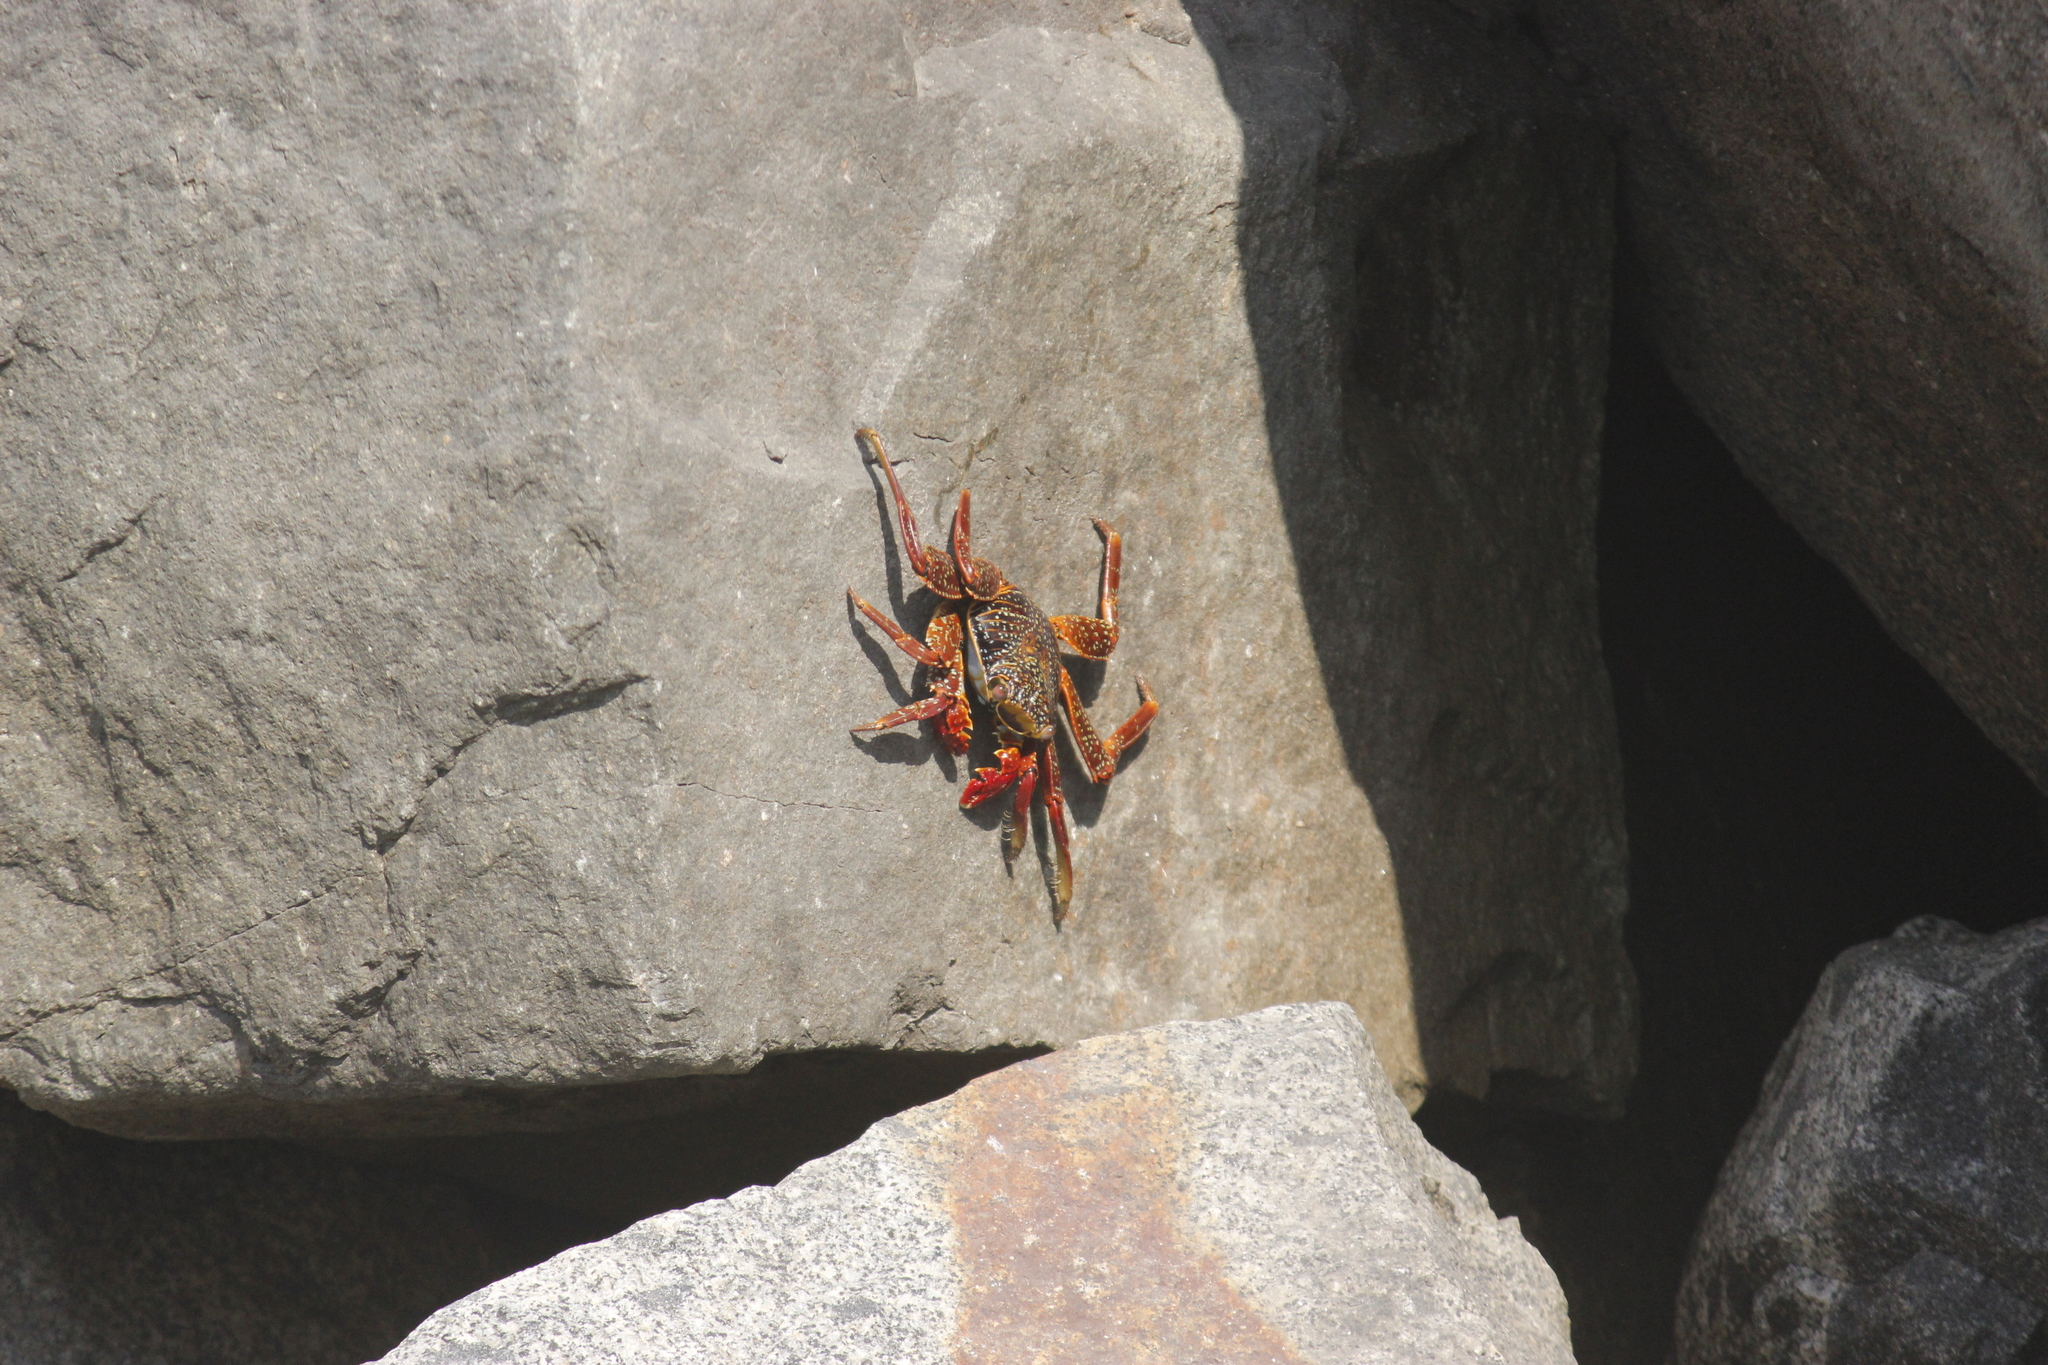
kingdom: Animalia
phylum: Arthropoda
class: Malacostraca
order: Decapoda
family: Grapsidae
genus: Grapsus
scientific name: Grapsus grapsus
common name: Sally lightfoot
